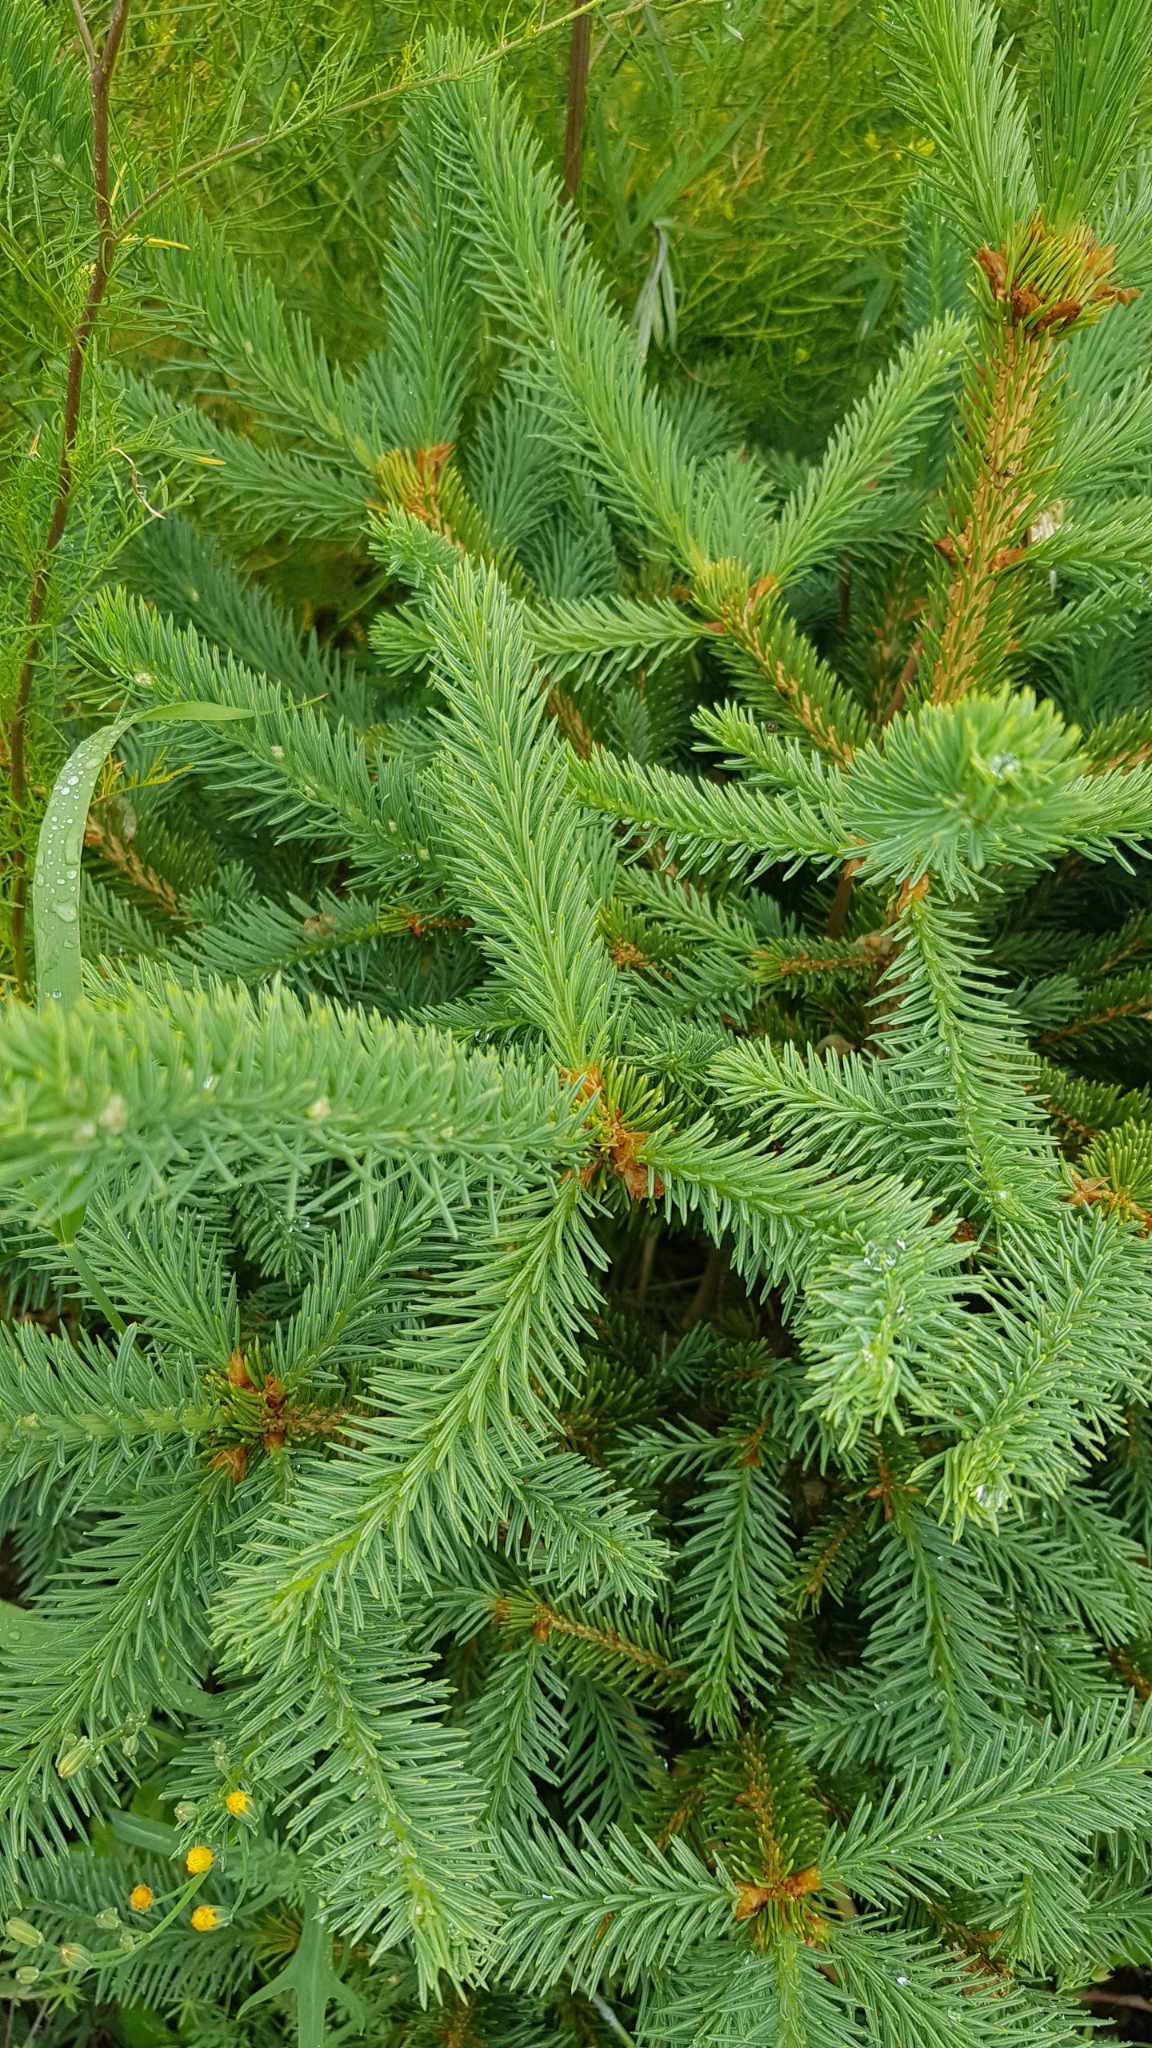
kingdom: Plantae
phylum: Tracheophyta
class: Pinopsida
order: Pinales
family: Pinaceae
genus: Picea
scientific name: Picea obovata
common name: Siberian spruce
